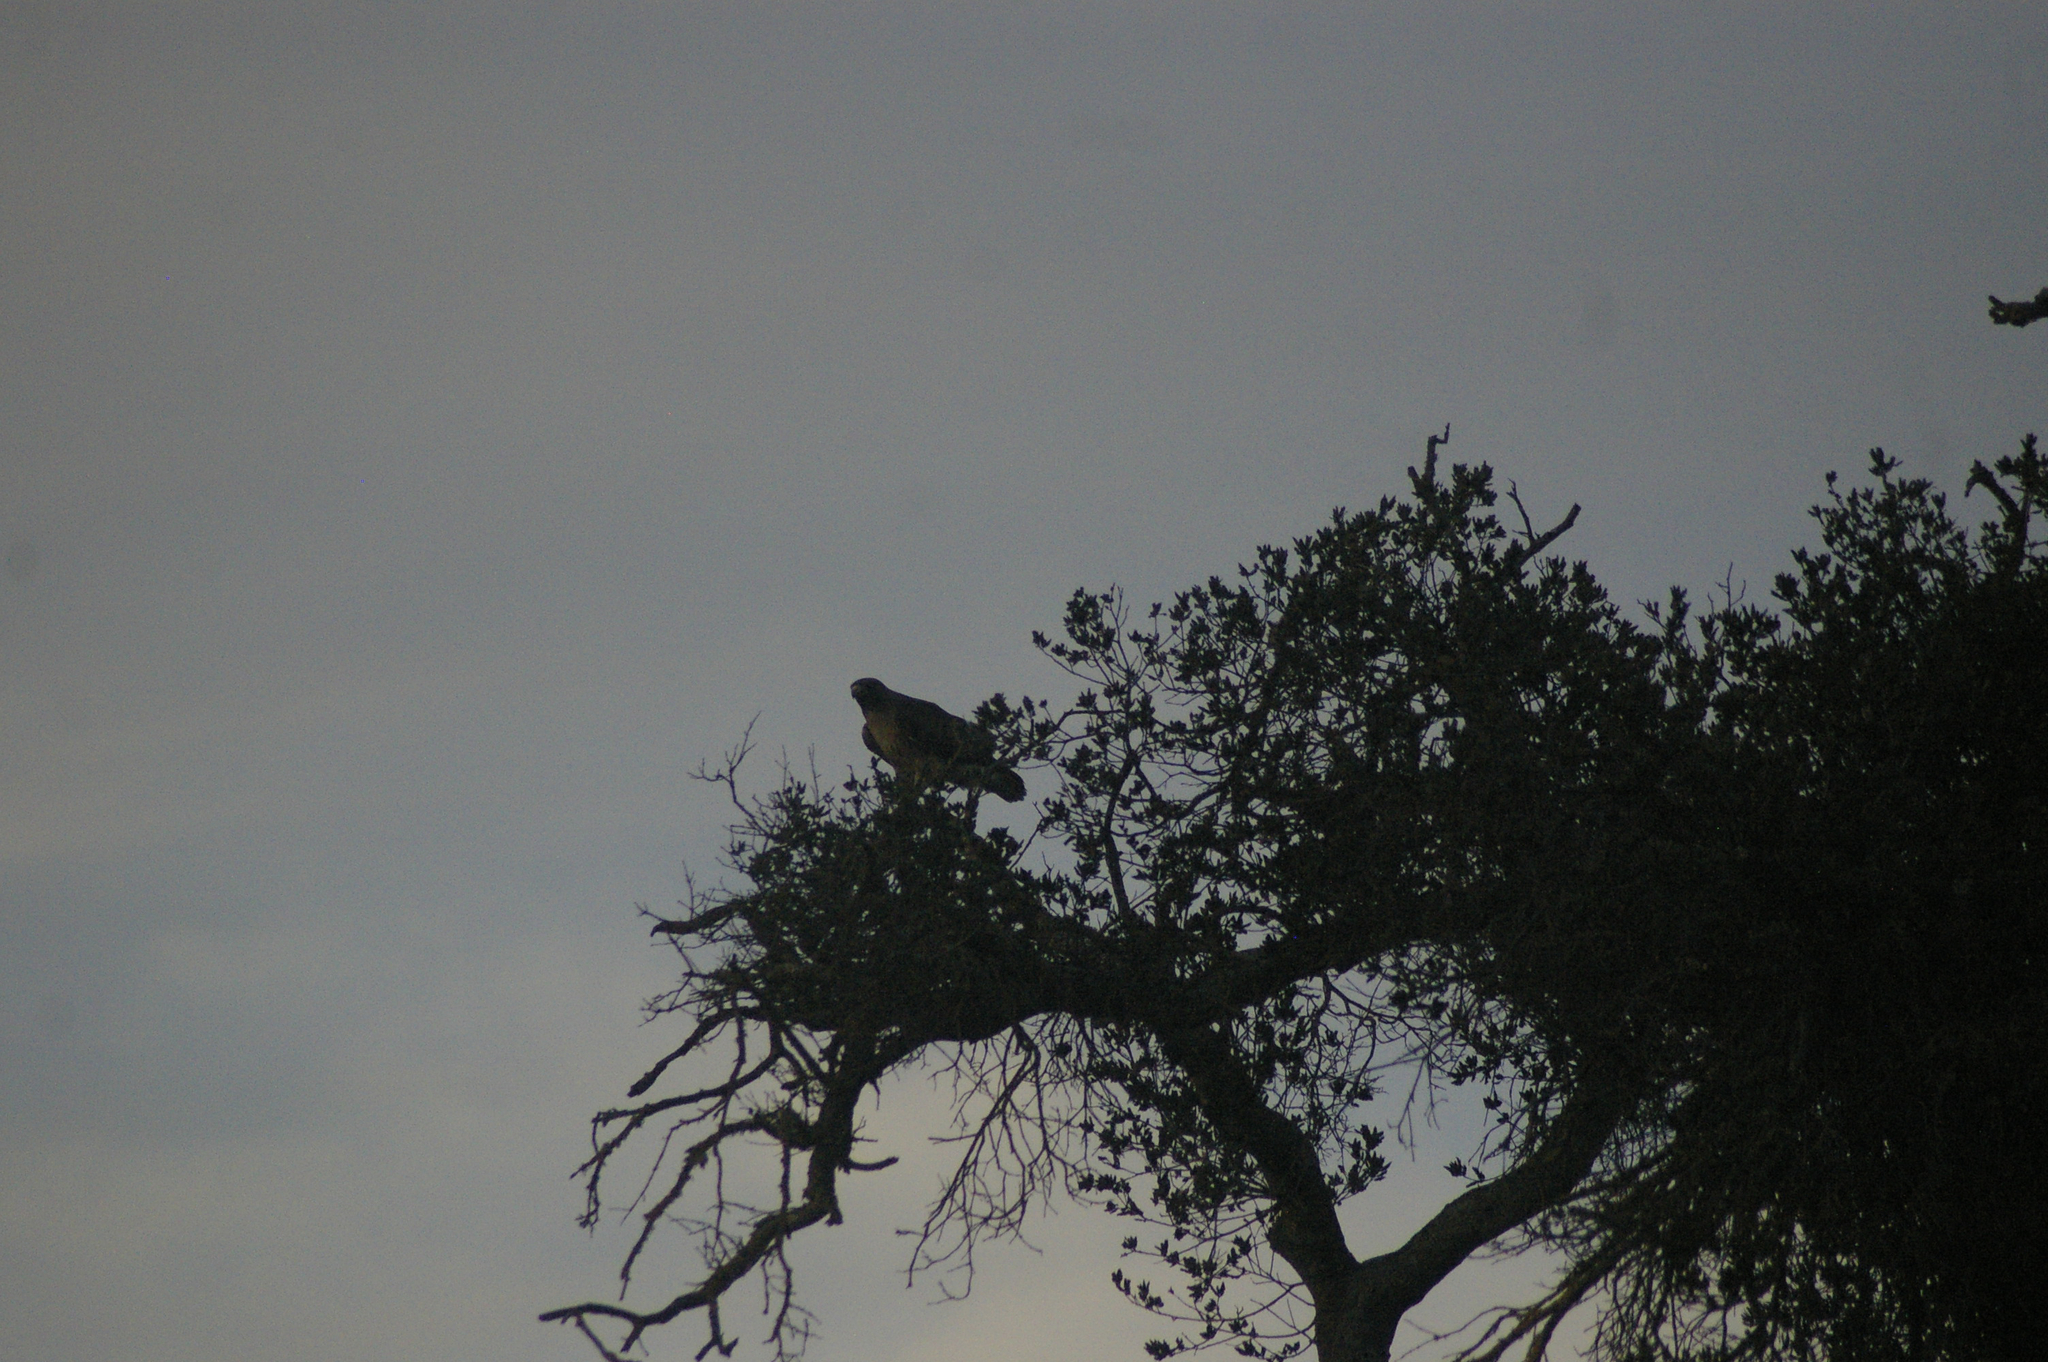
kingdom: Animalia
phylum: Chordata
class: Aves
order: Accipitriformes
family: Accipitridae
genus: Buteo
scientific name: Buteo jamaicensis
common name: Red-tailed hawk
